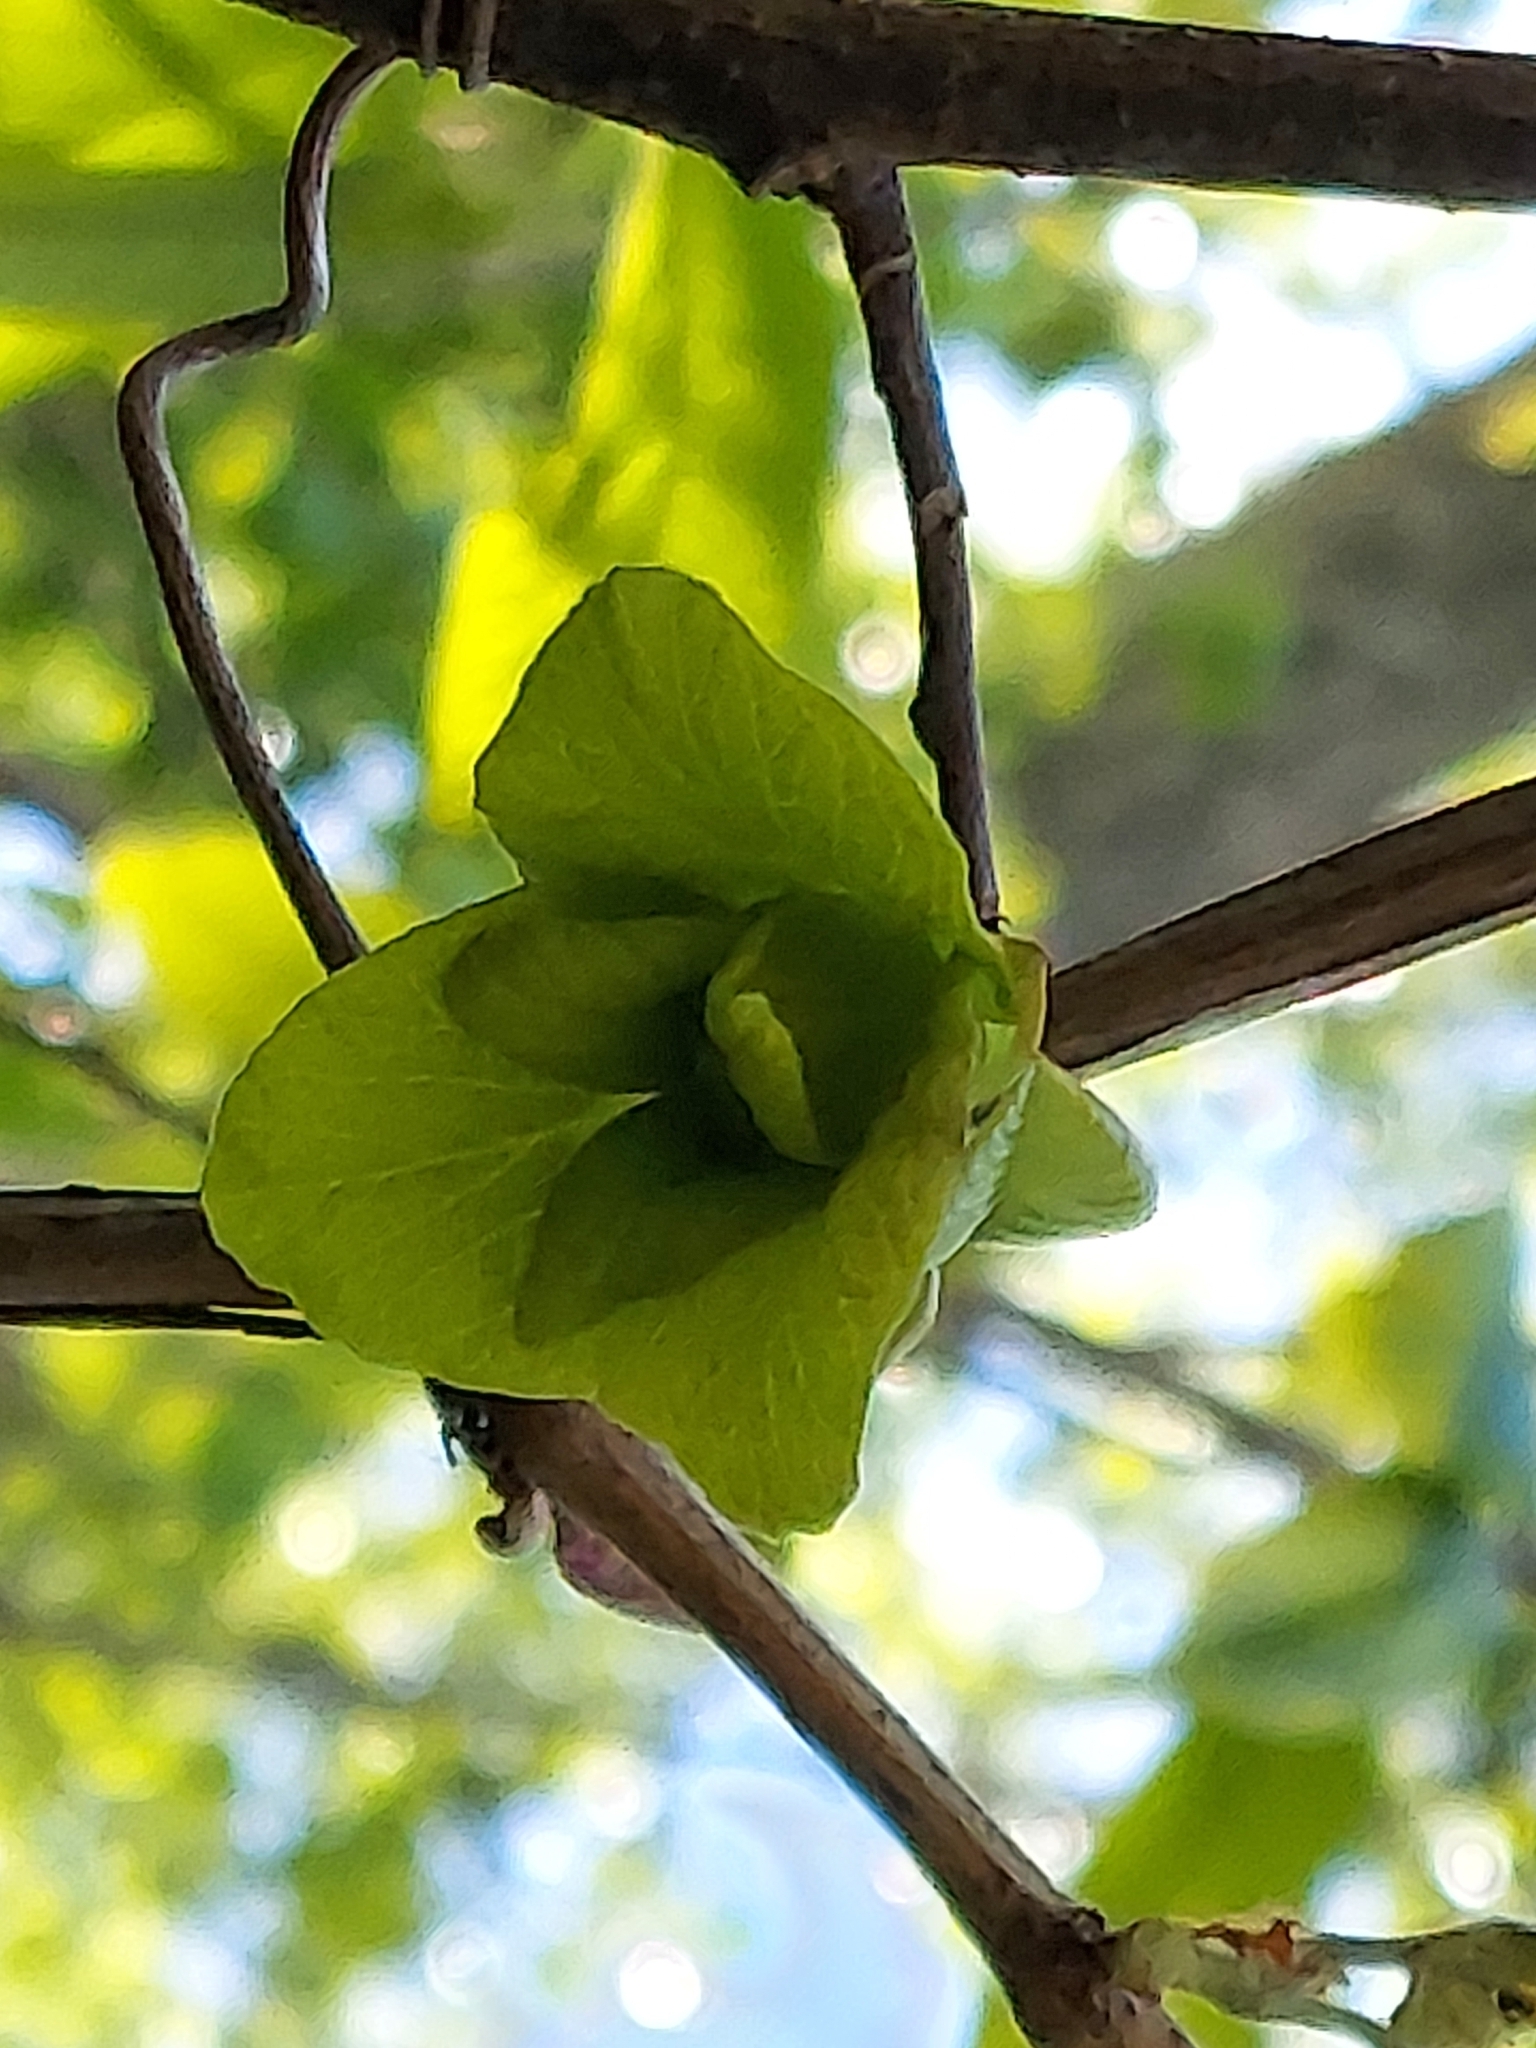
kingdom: Plantae
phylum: Tracheophyta
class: Magnoliopsida
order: Magnoliales
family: Annonaceae
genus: Asimina
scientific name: Asimina triloba
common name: Dog-banana
